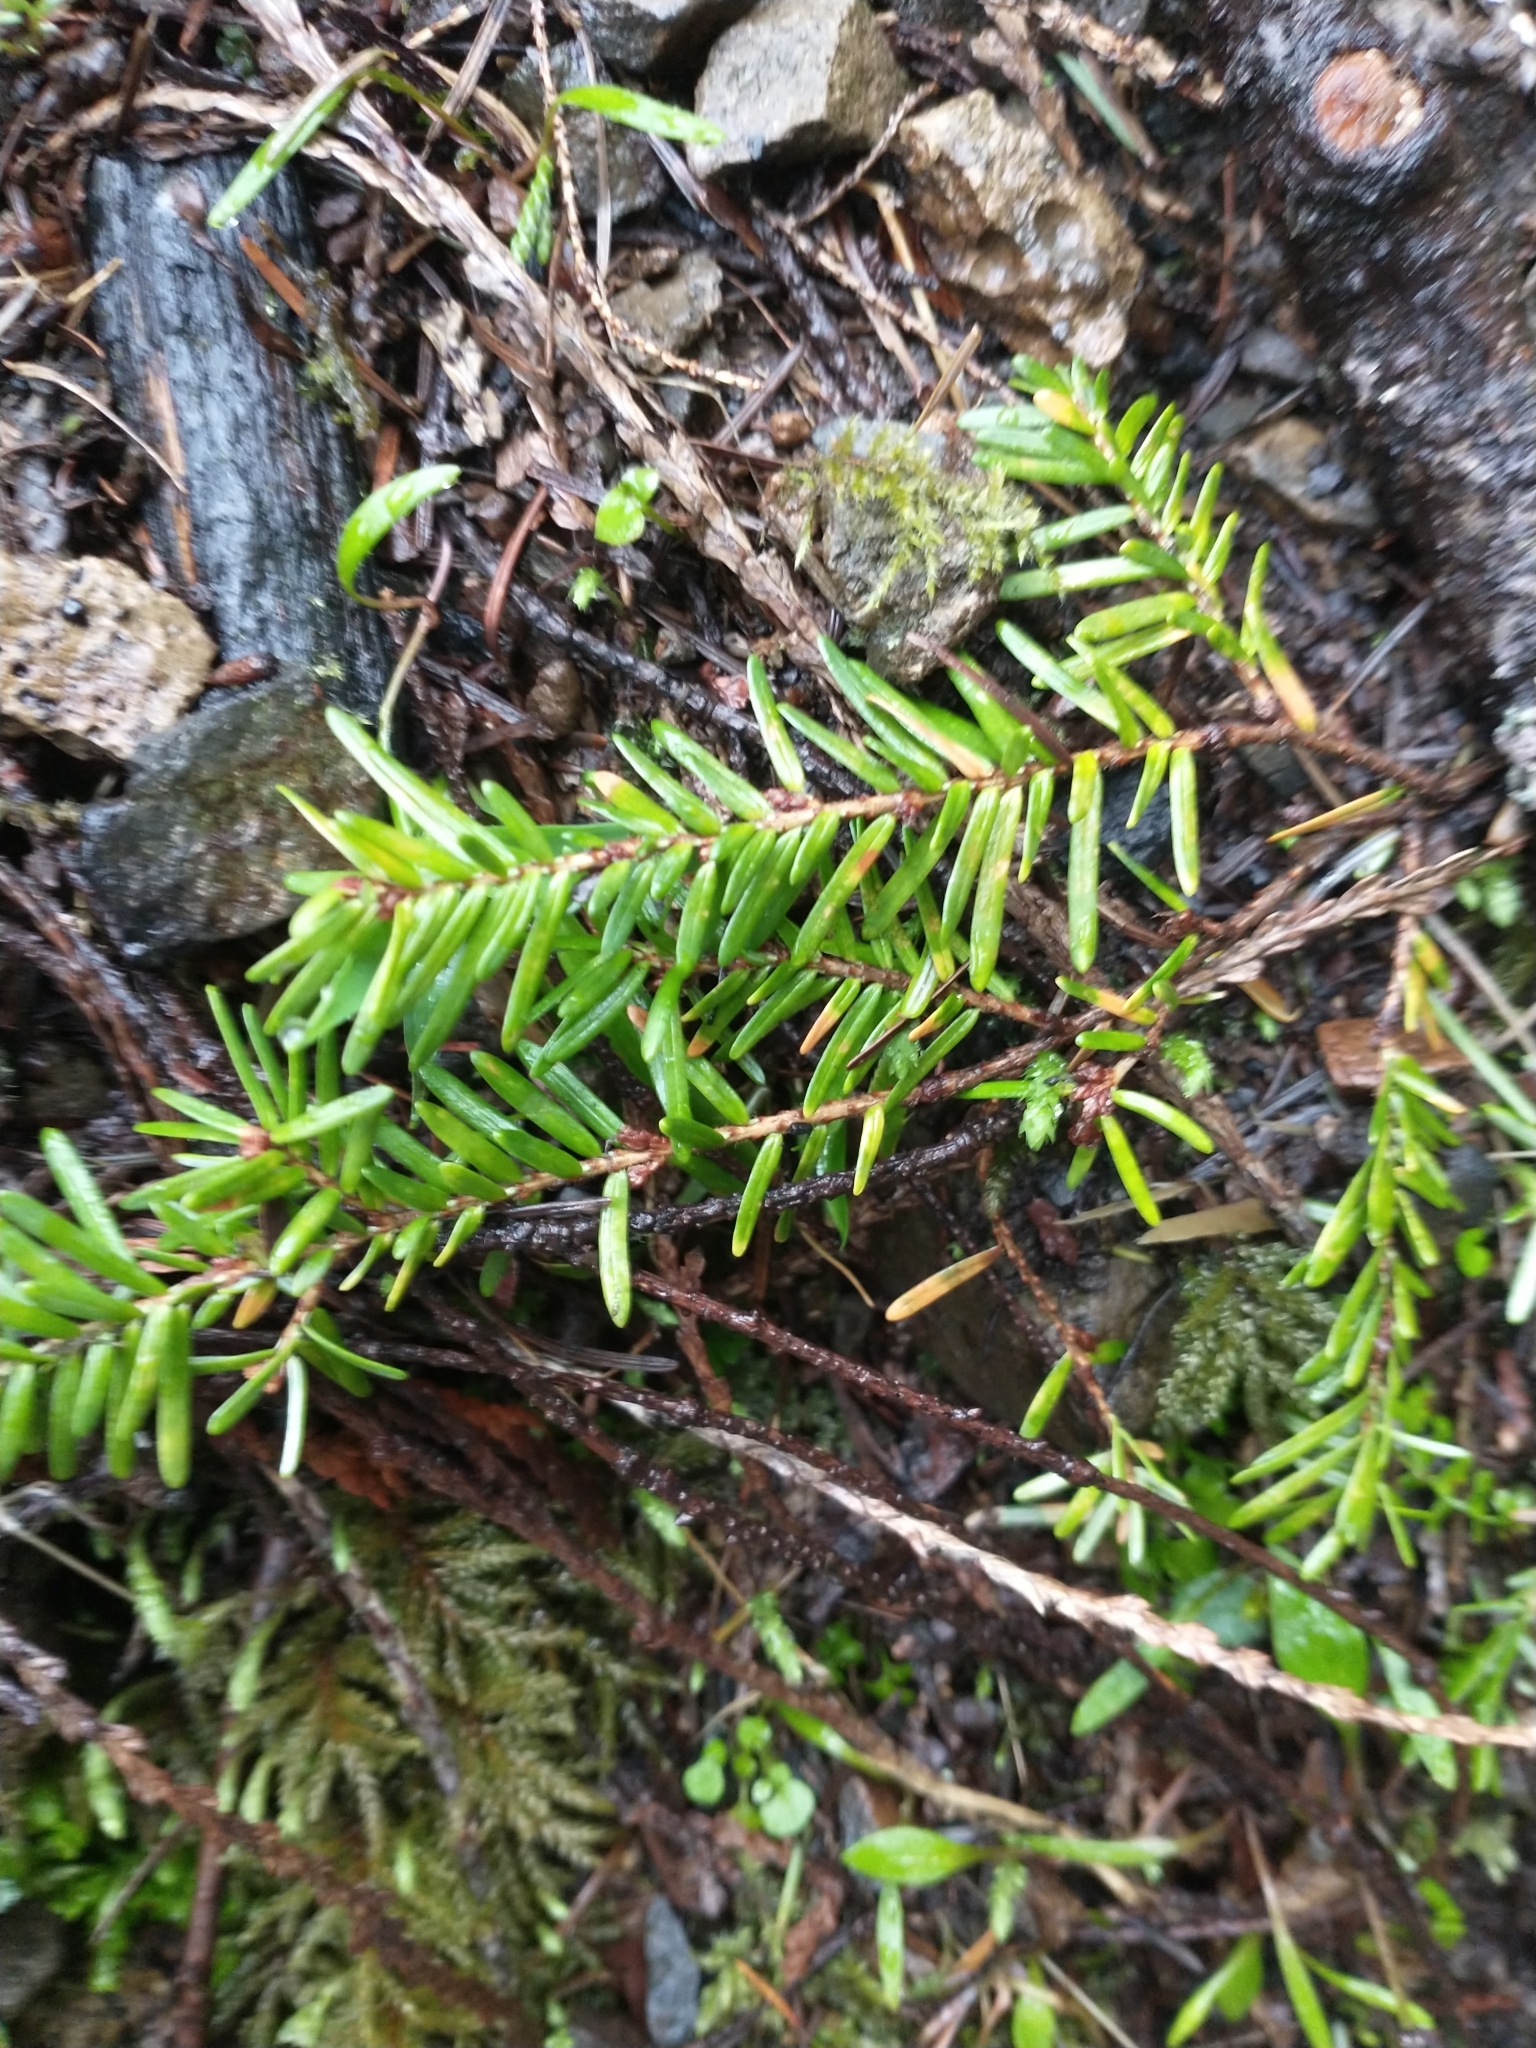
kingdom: Plantae
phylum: Tracheophyta
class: Pinopsida
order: Pinales
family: Pinaceae
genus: Tsuga
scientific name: Tsuga heterophylla
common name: Western hemlock
